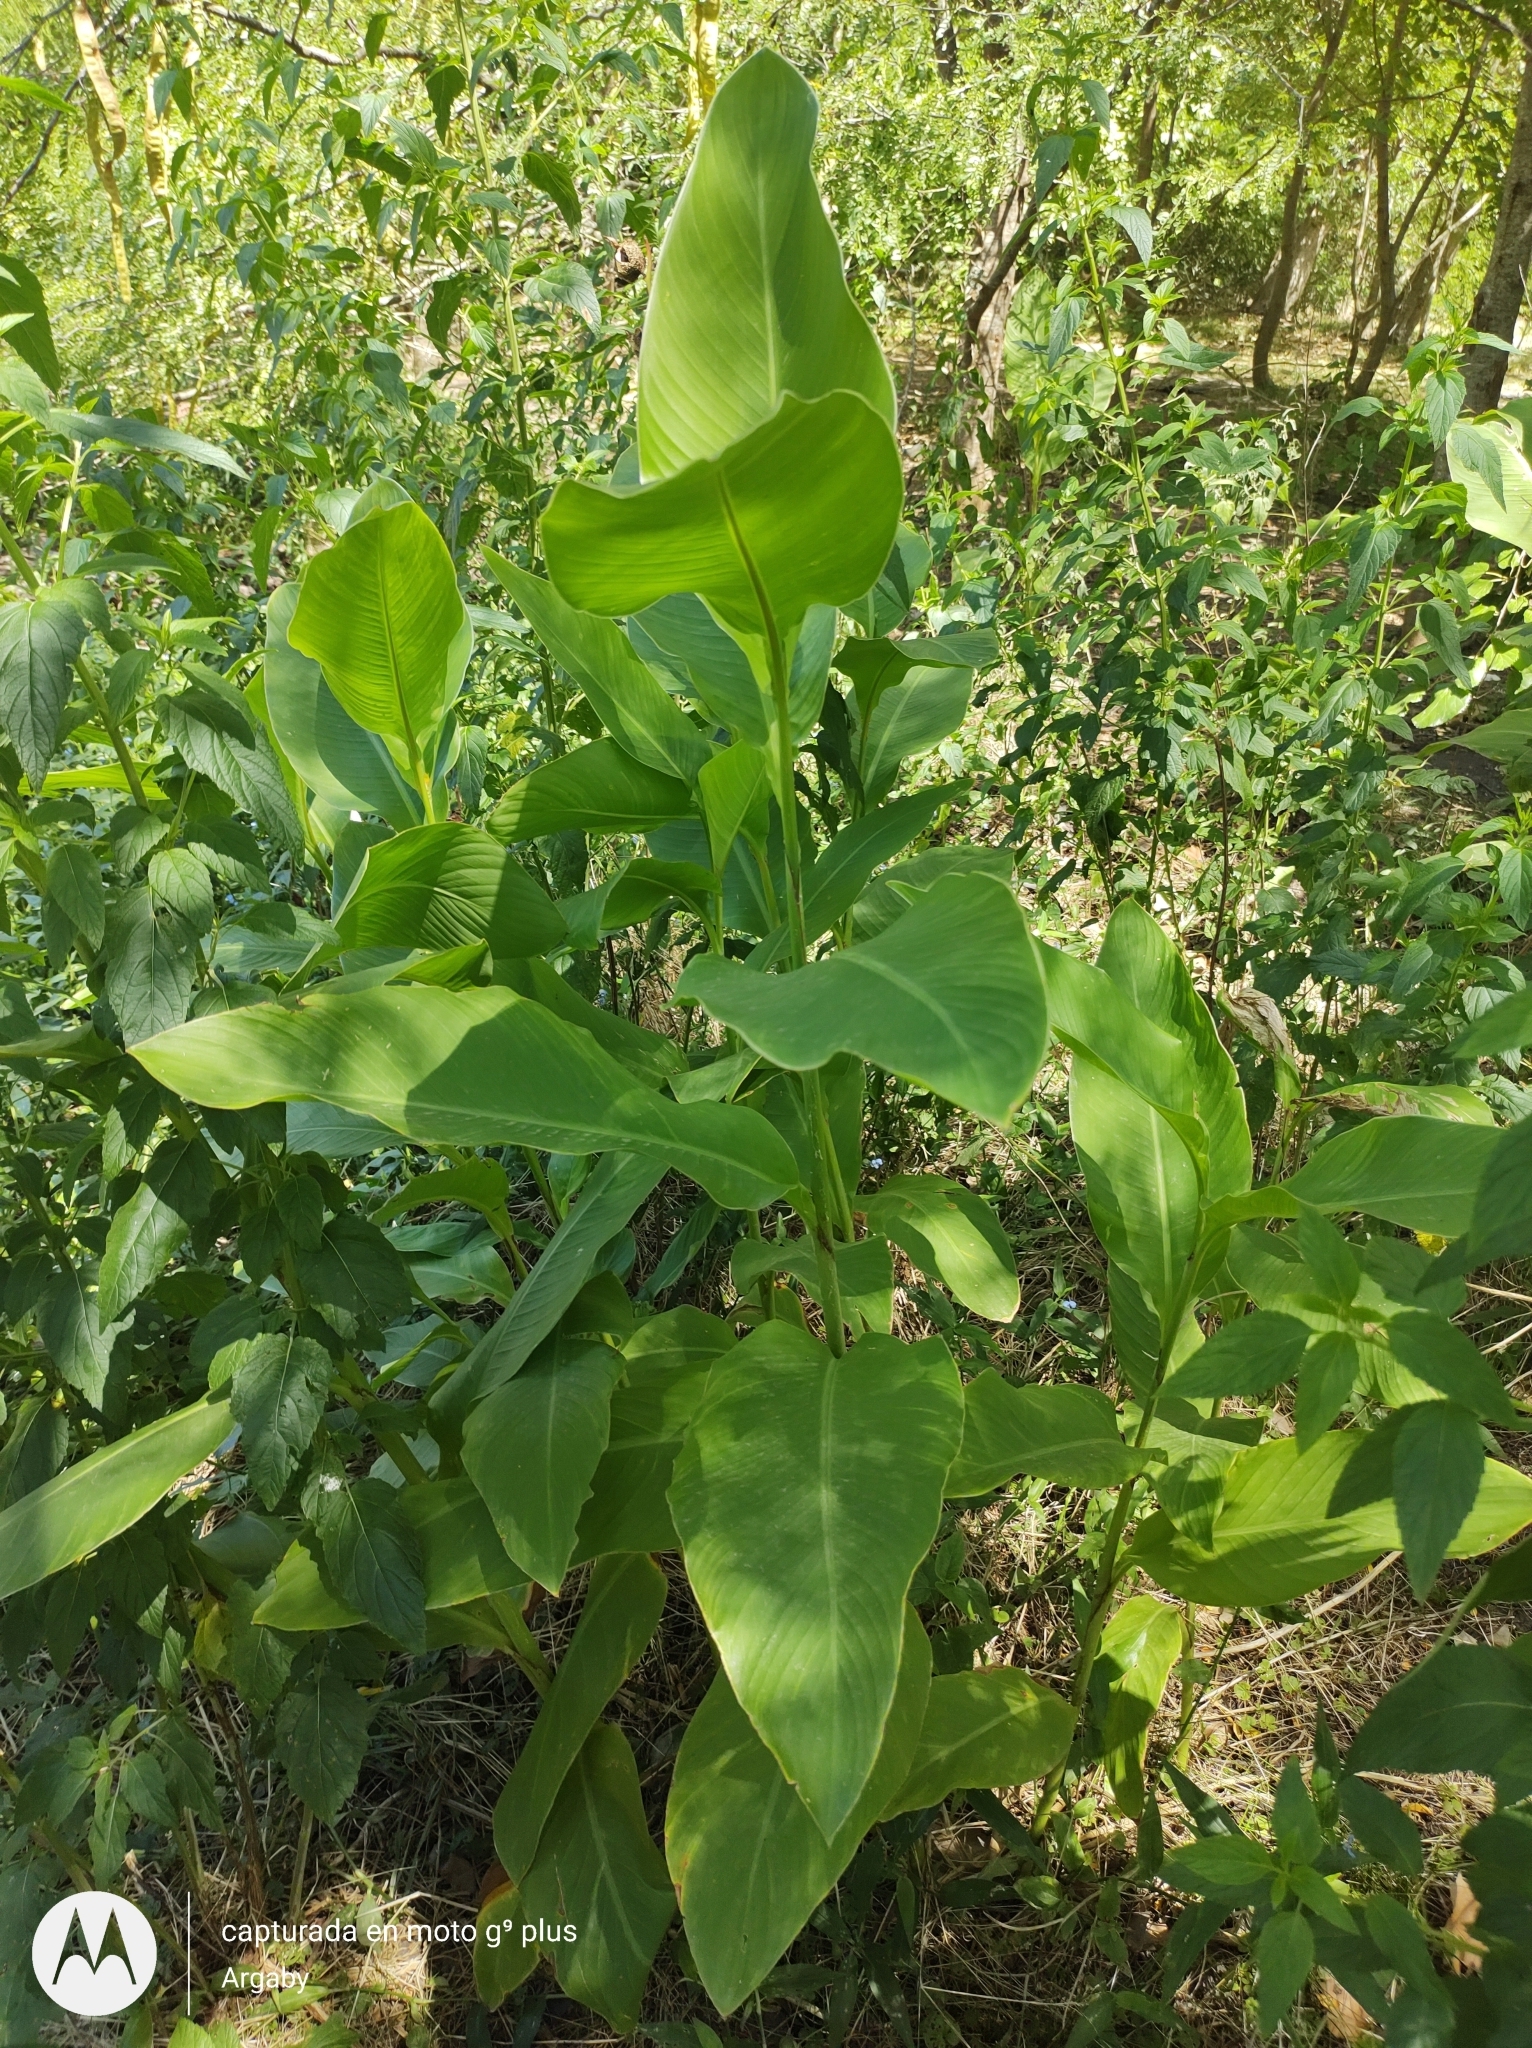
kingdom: Plantae
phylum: Tracheophyta
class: Liliopsida
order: Zingiberales
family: Cannaceae
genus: Canna
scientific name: Canna indica
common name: Indian shot
